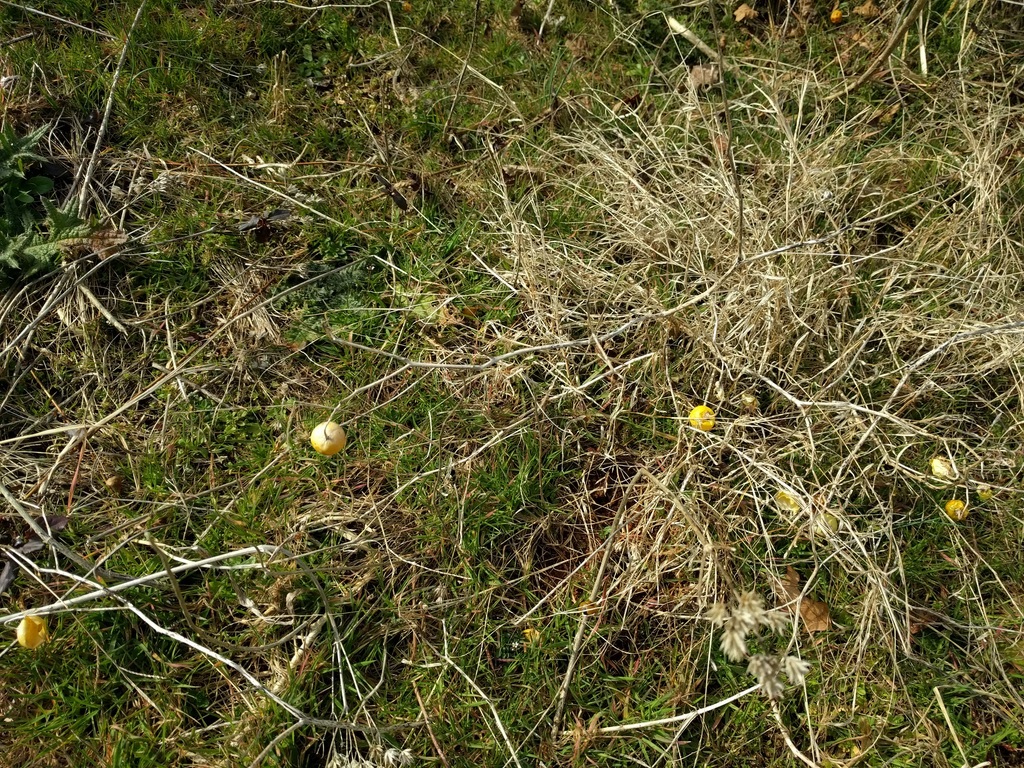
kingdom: Plantae
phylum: Tracheophyta
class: Magnoliopsida
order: Solanales
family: Solanaceae
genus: Solanum
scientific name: Solanum carolinense
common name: Horse-nettle
